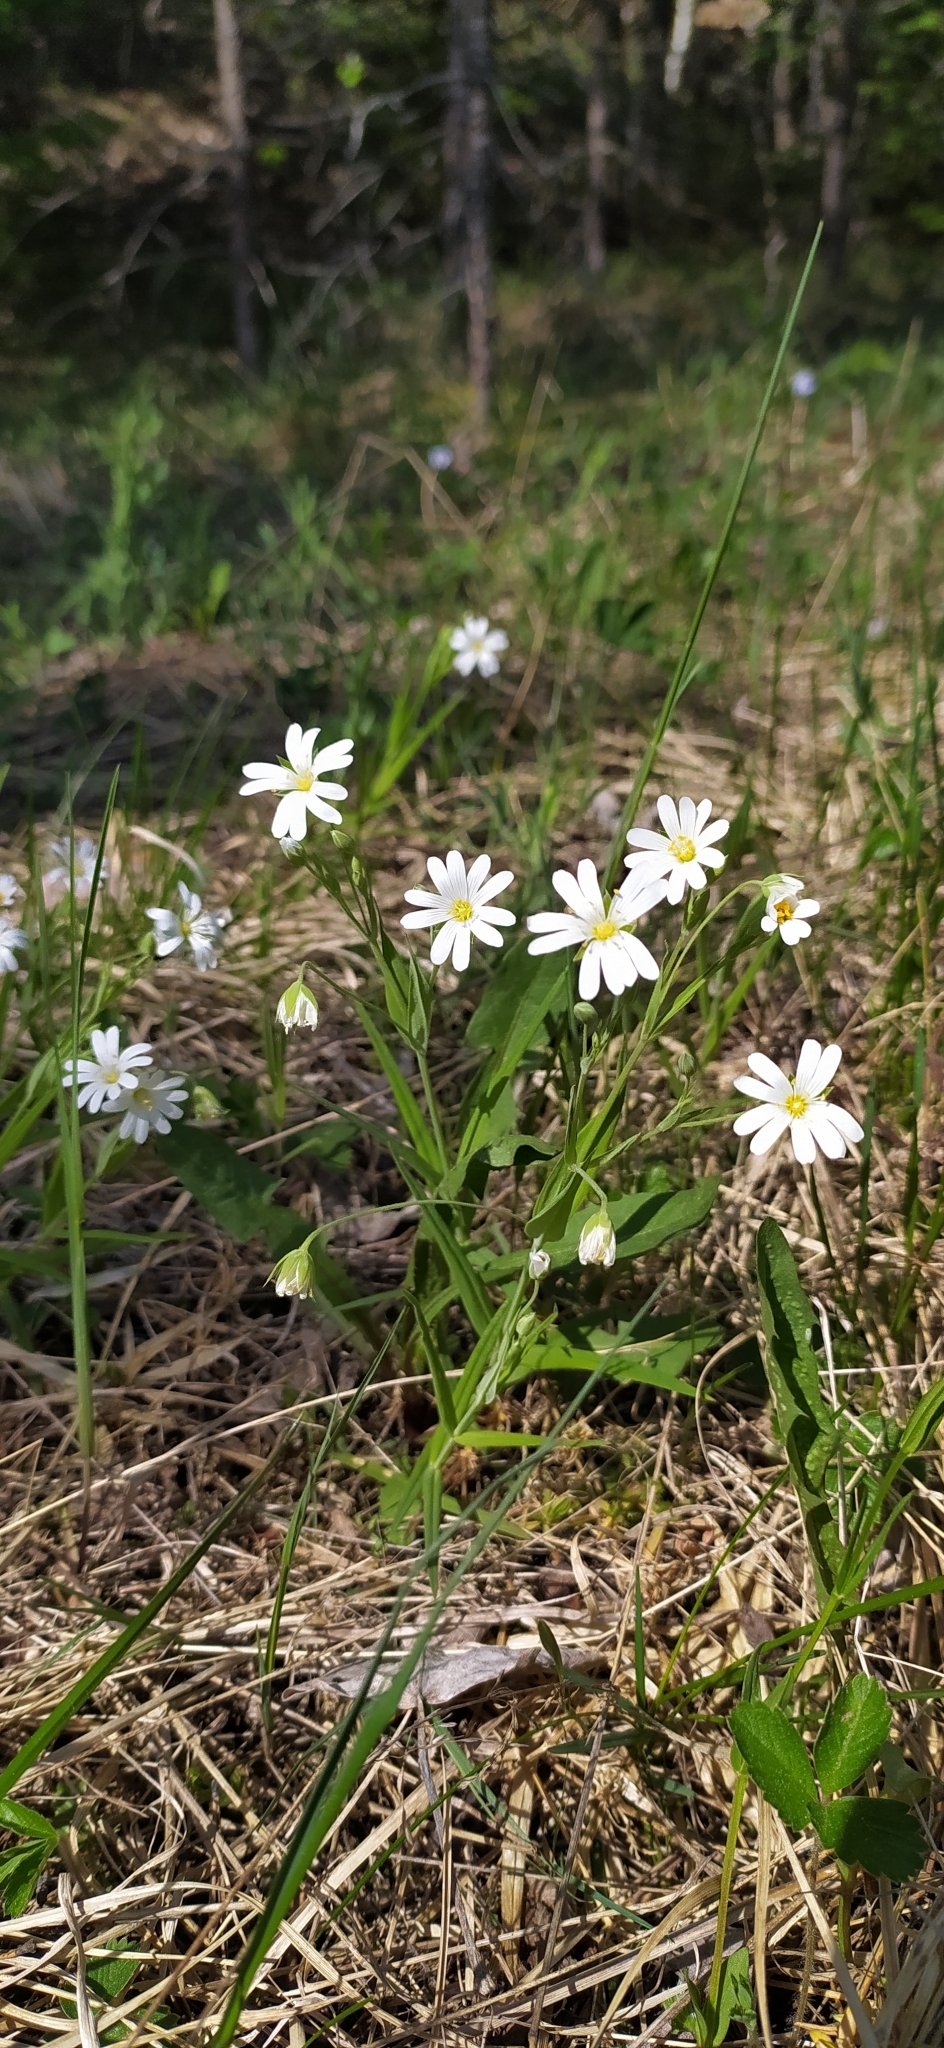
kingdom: Plantae
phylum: Tracheophyta
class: Magnoliopsida
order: Caryophyllales
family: Caryophyllaceae
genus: Rabelera
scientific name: Rabelera holostea
